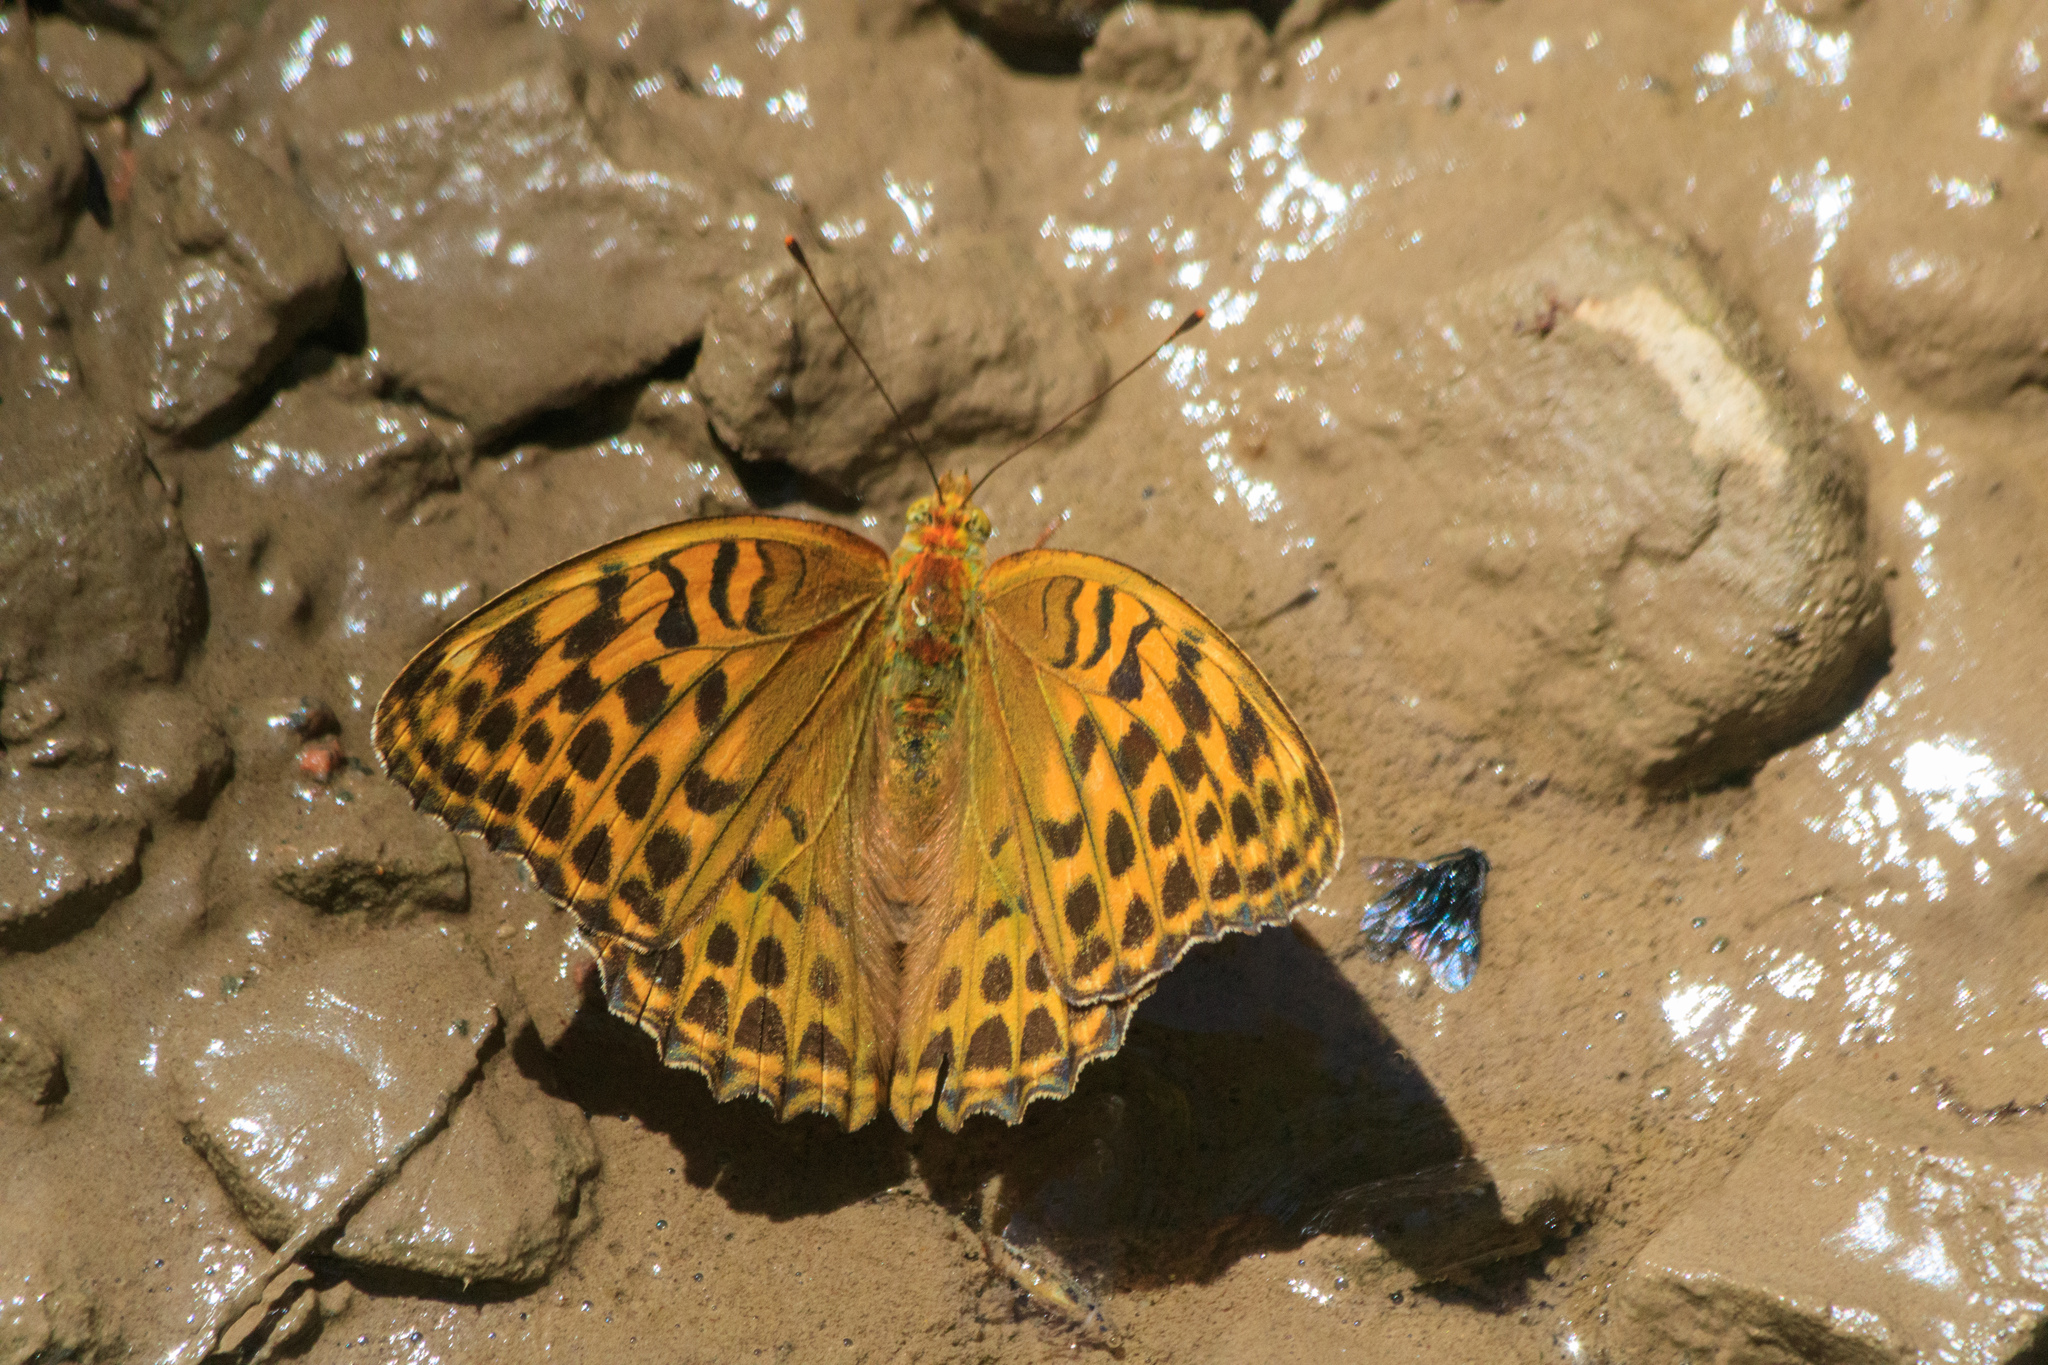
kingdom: Animalia
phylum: Arthropoda
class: Insecta
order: Lepidoptera
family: Nymphalidae
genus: Argynnis
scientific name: Argynnis paphia
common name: Silver-washed fritillary
